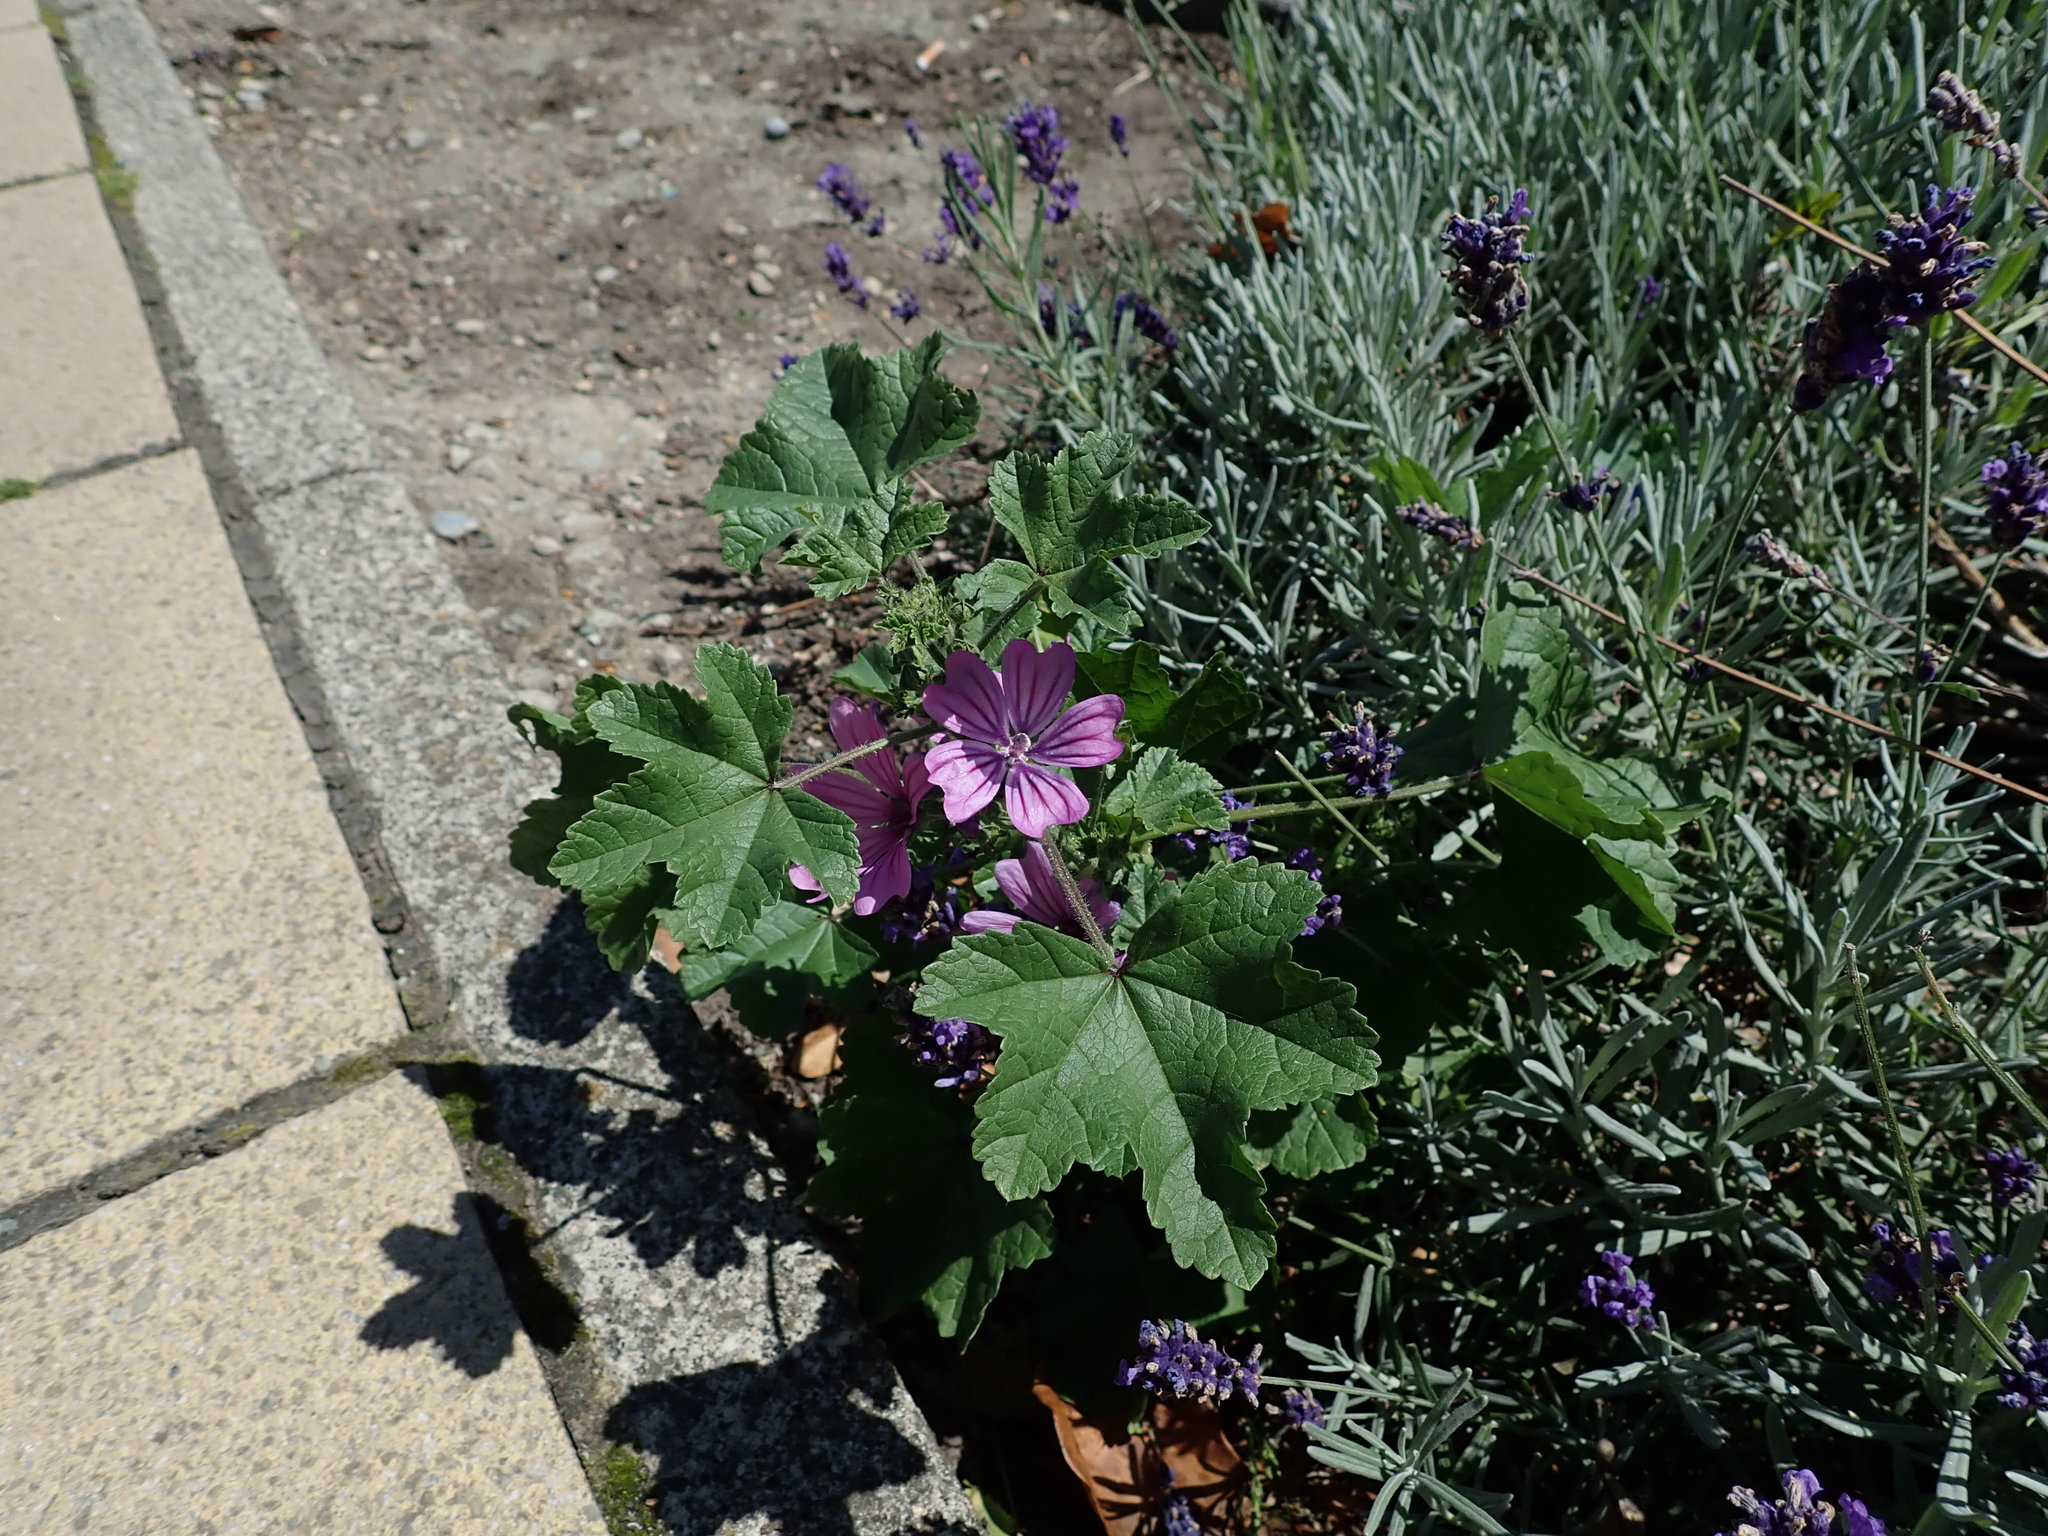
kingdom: Plantae
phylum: Tracheophyta
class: Magnoliopsida
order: Malvales
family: Malvaceae
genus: Malva
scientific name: Malva sylvestris
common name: Common mallow
